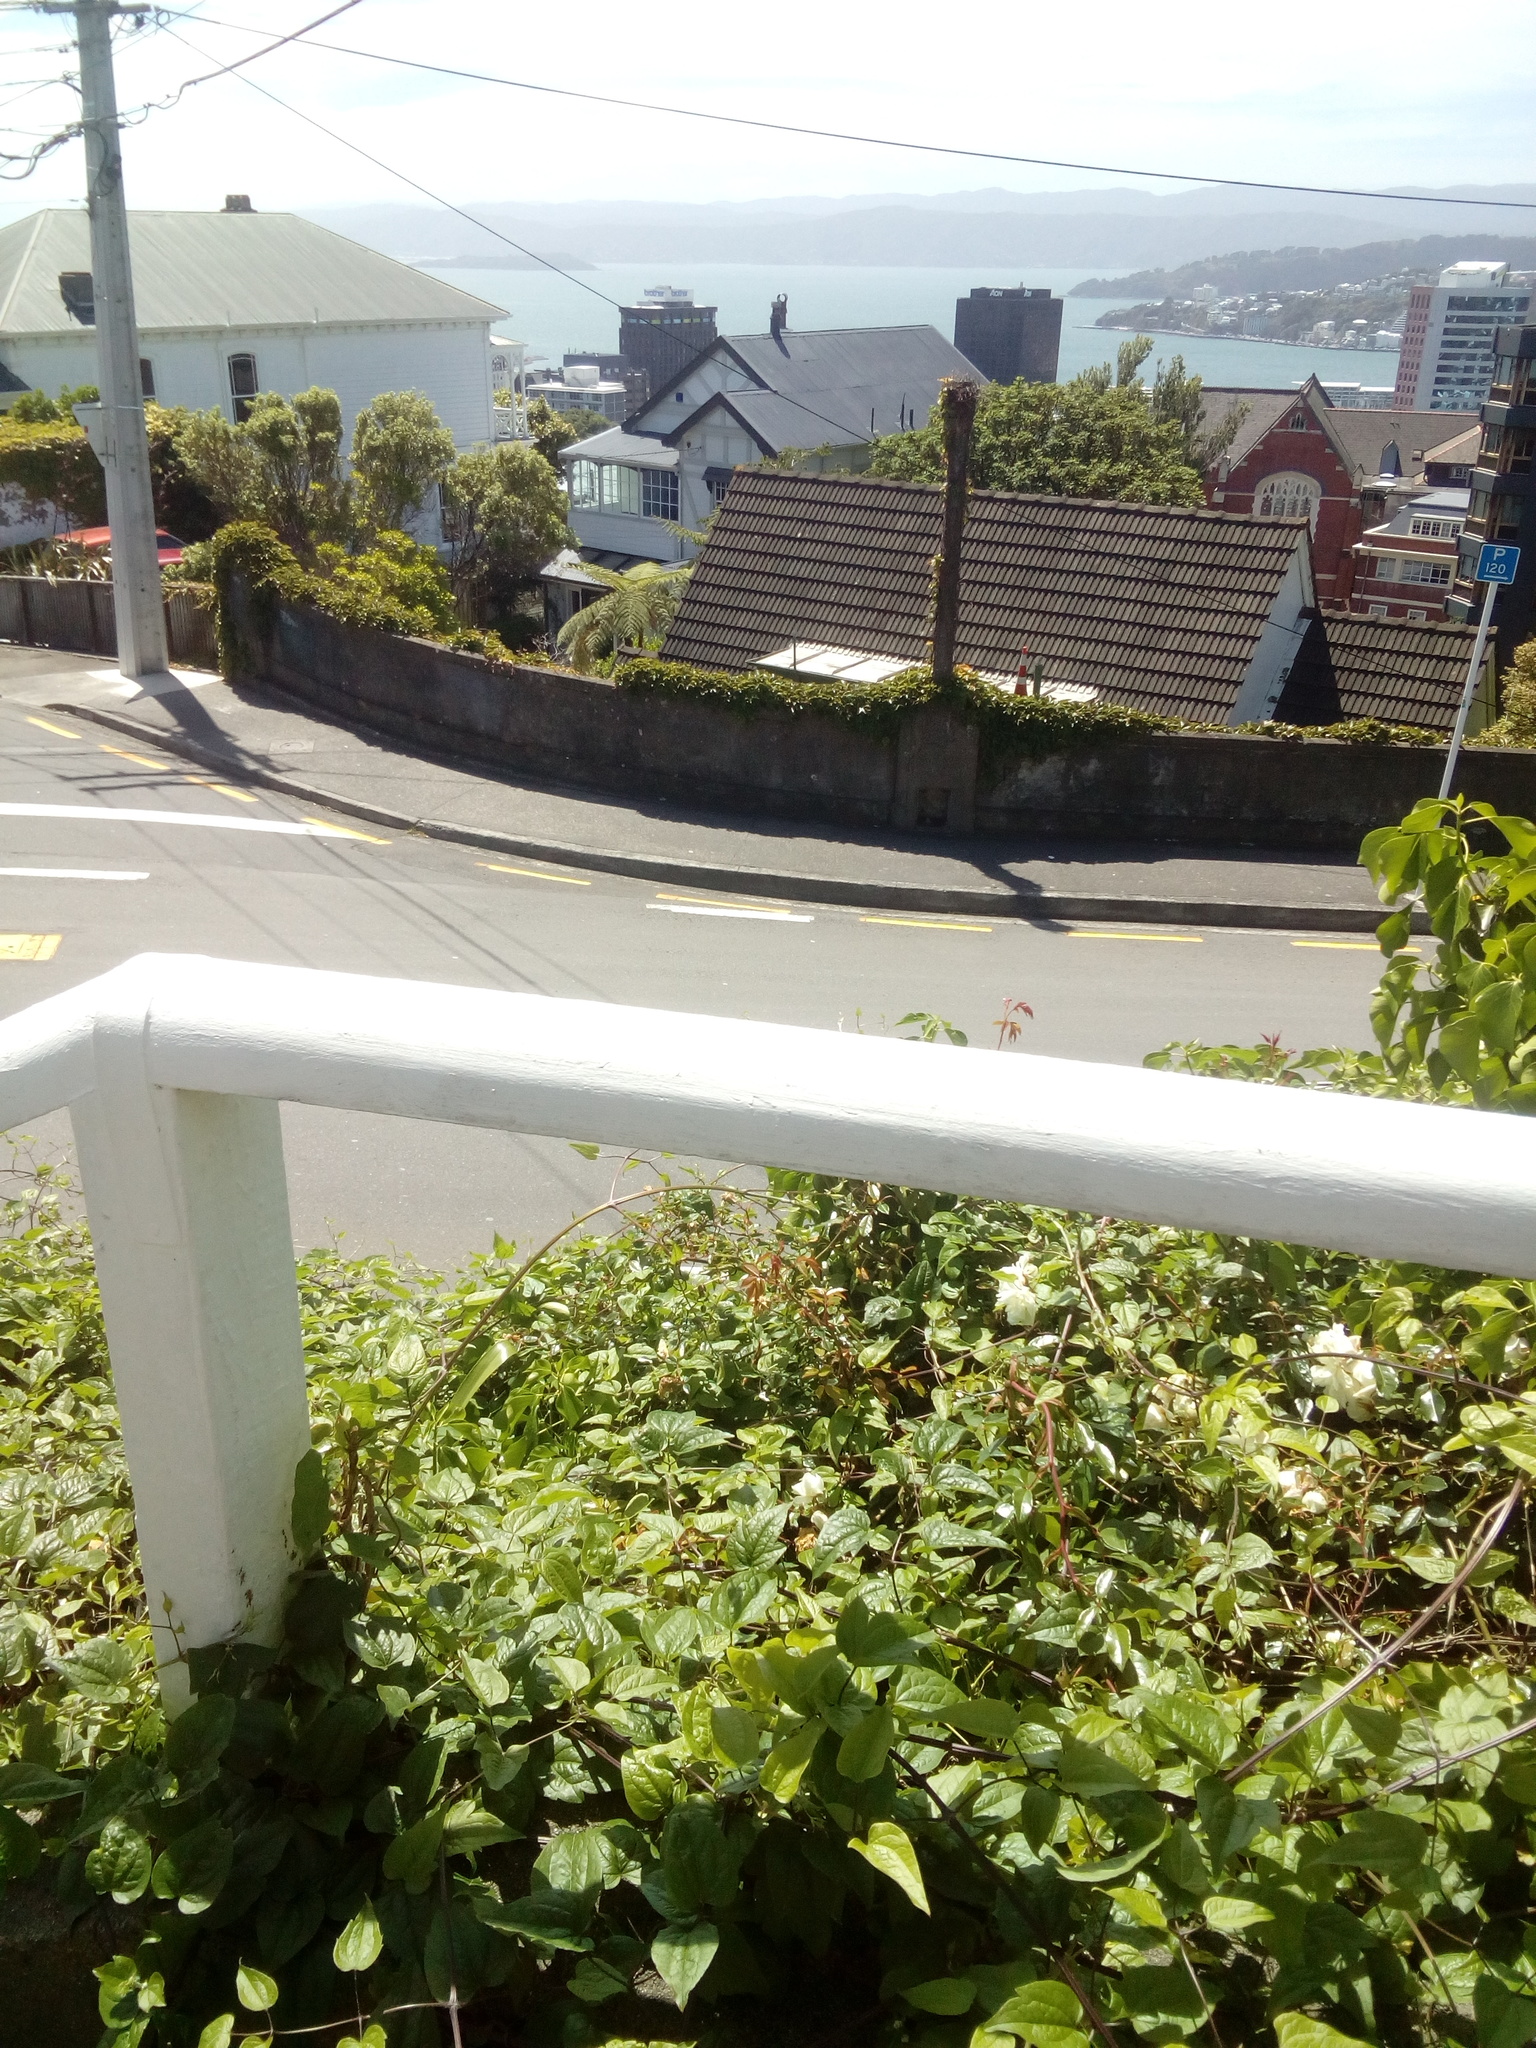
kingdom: Plantae
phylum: Tracheophyta
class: Magnoliopsida
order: Ranunculales
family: Ranunculaceae
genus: Clematis
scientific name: Clematis vitalba
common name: Evergreen clematis
